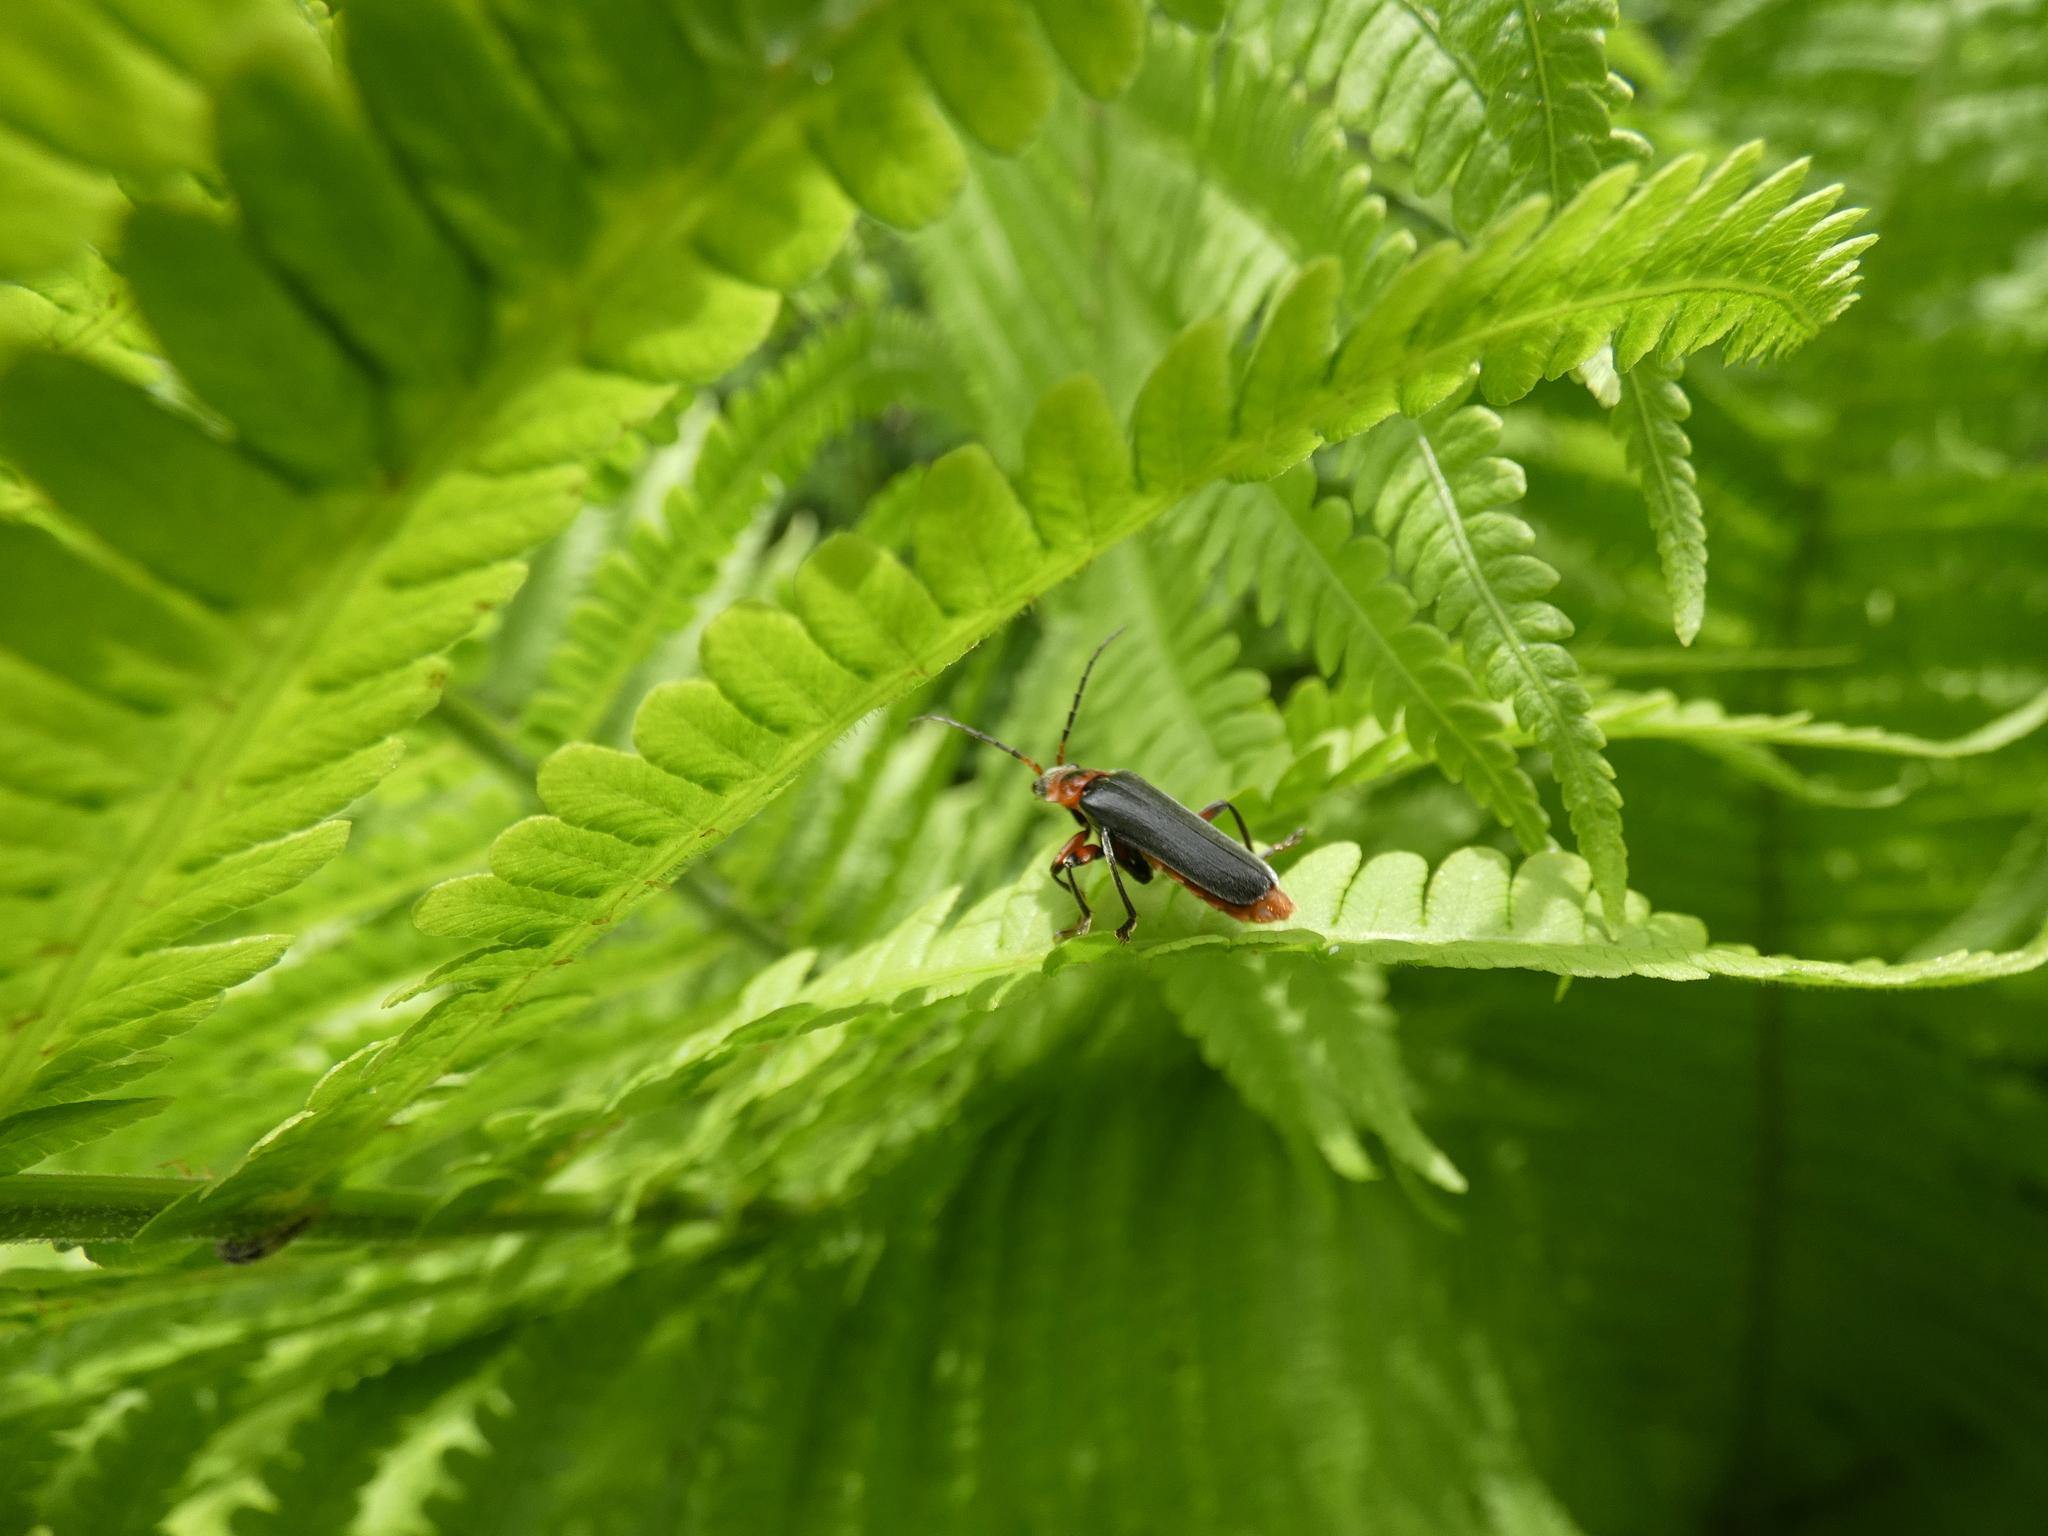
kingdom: Animalia
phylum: Arthropoda
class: Insecta
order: Coleoptera
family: Cantharidae
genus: Cantharis
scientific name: Cantharis rustica
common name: Soldier beetle
